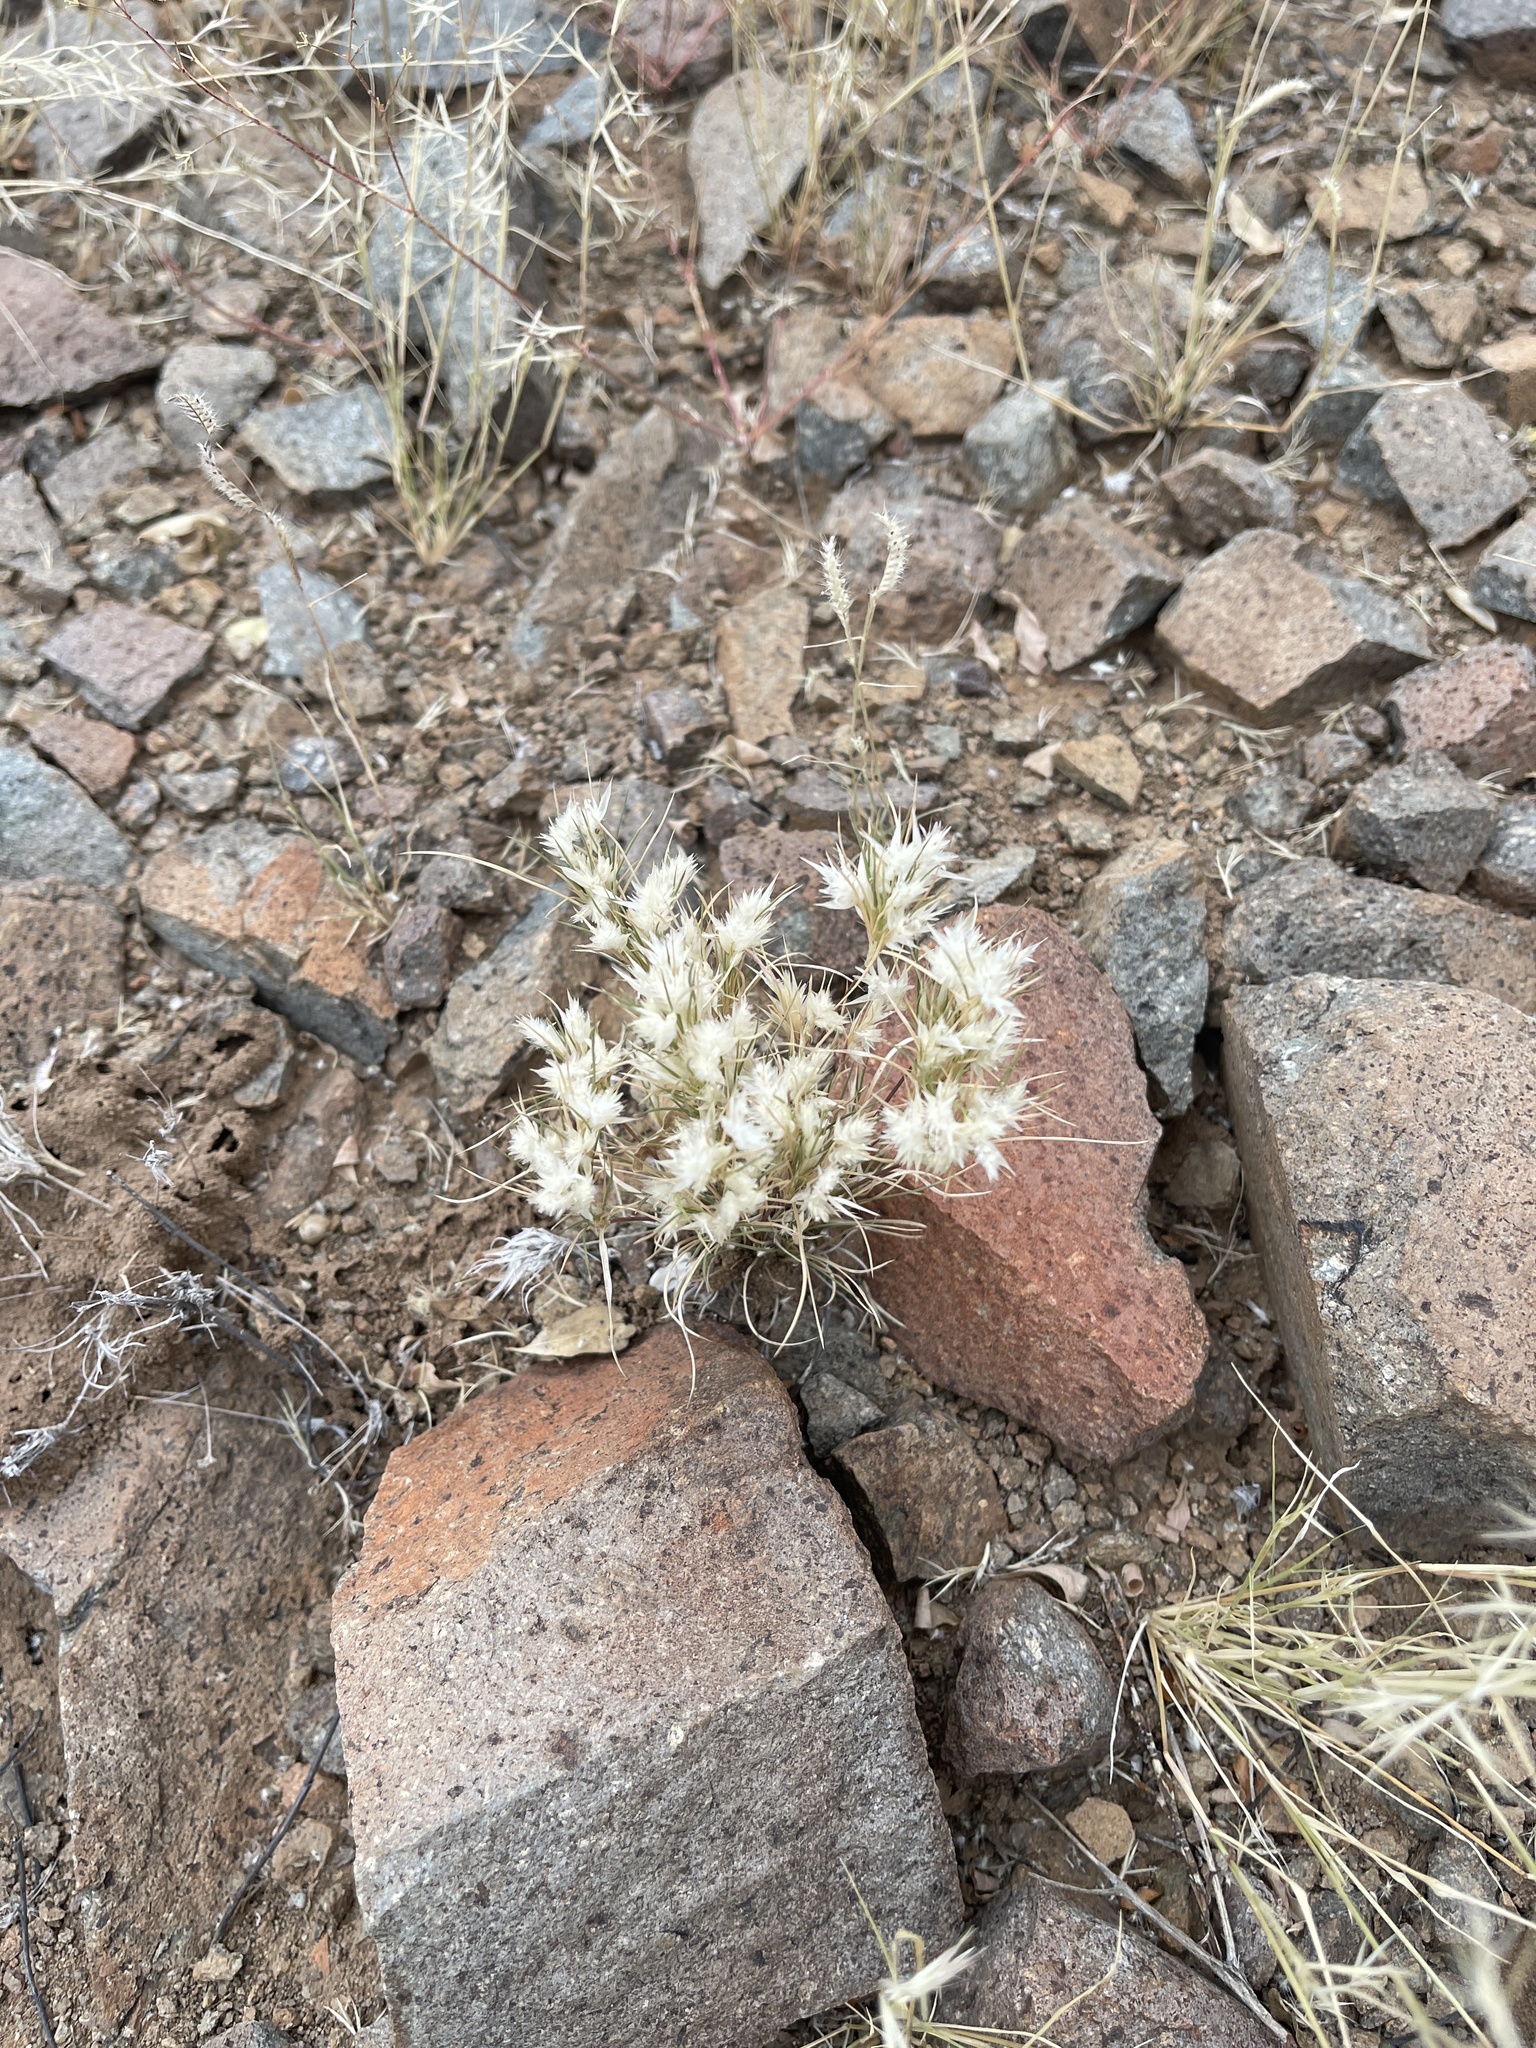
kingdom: Plantae
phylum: Tracheophyta
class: Liliopsida
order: Poales
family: Poaceae
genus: Dasyochloa
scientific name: Dasyochloa pulchella
